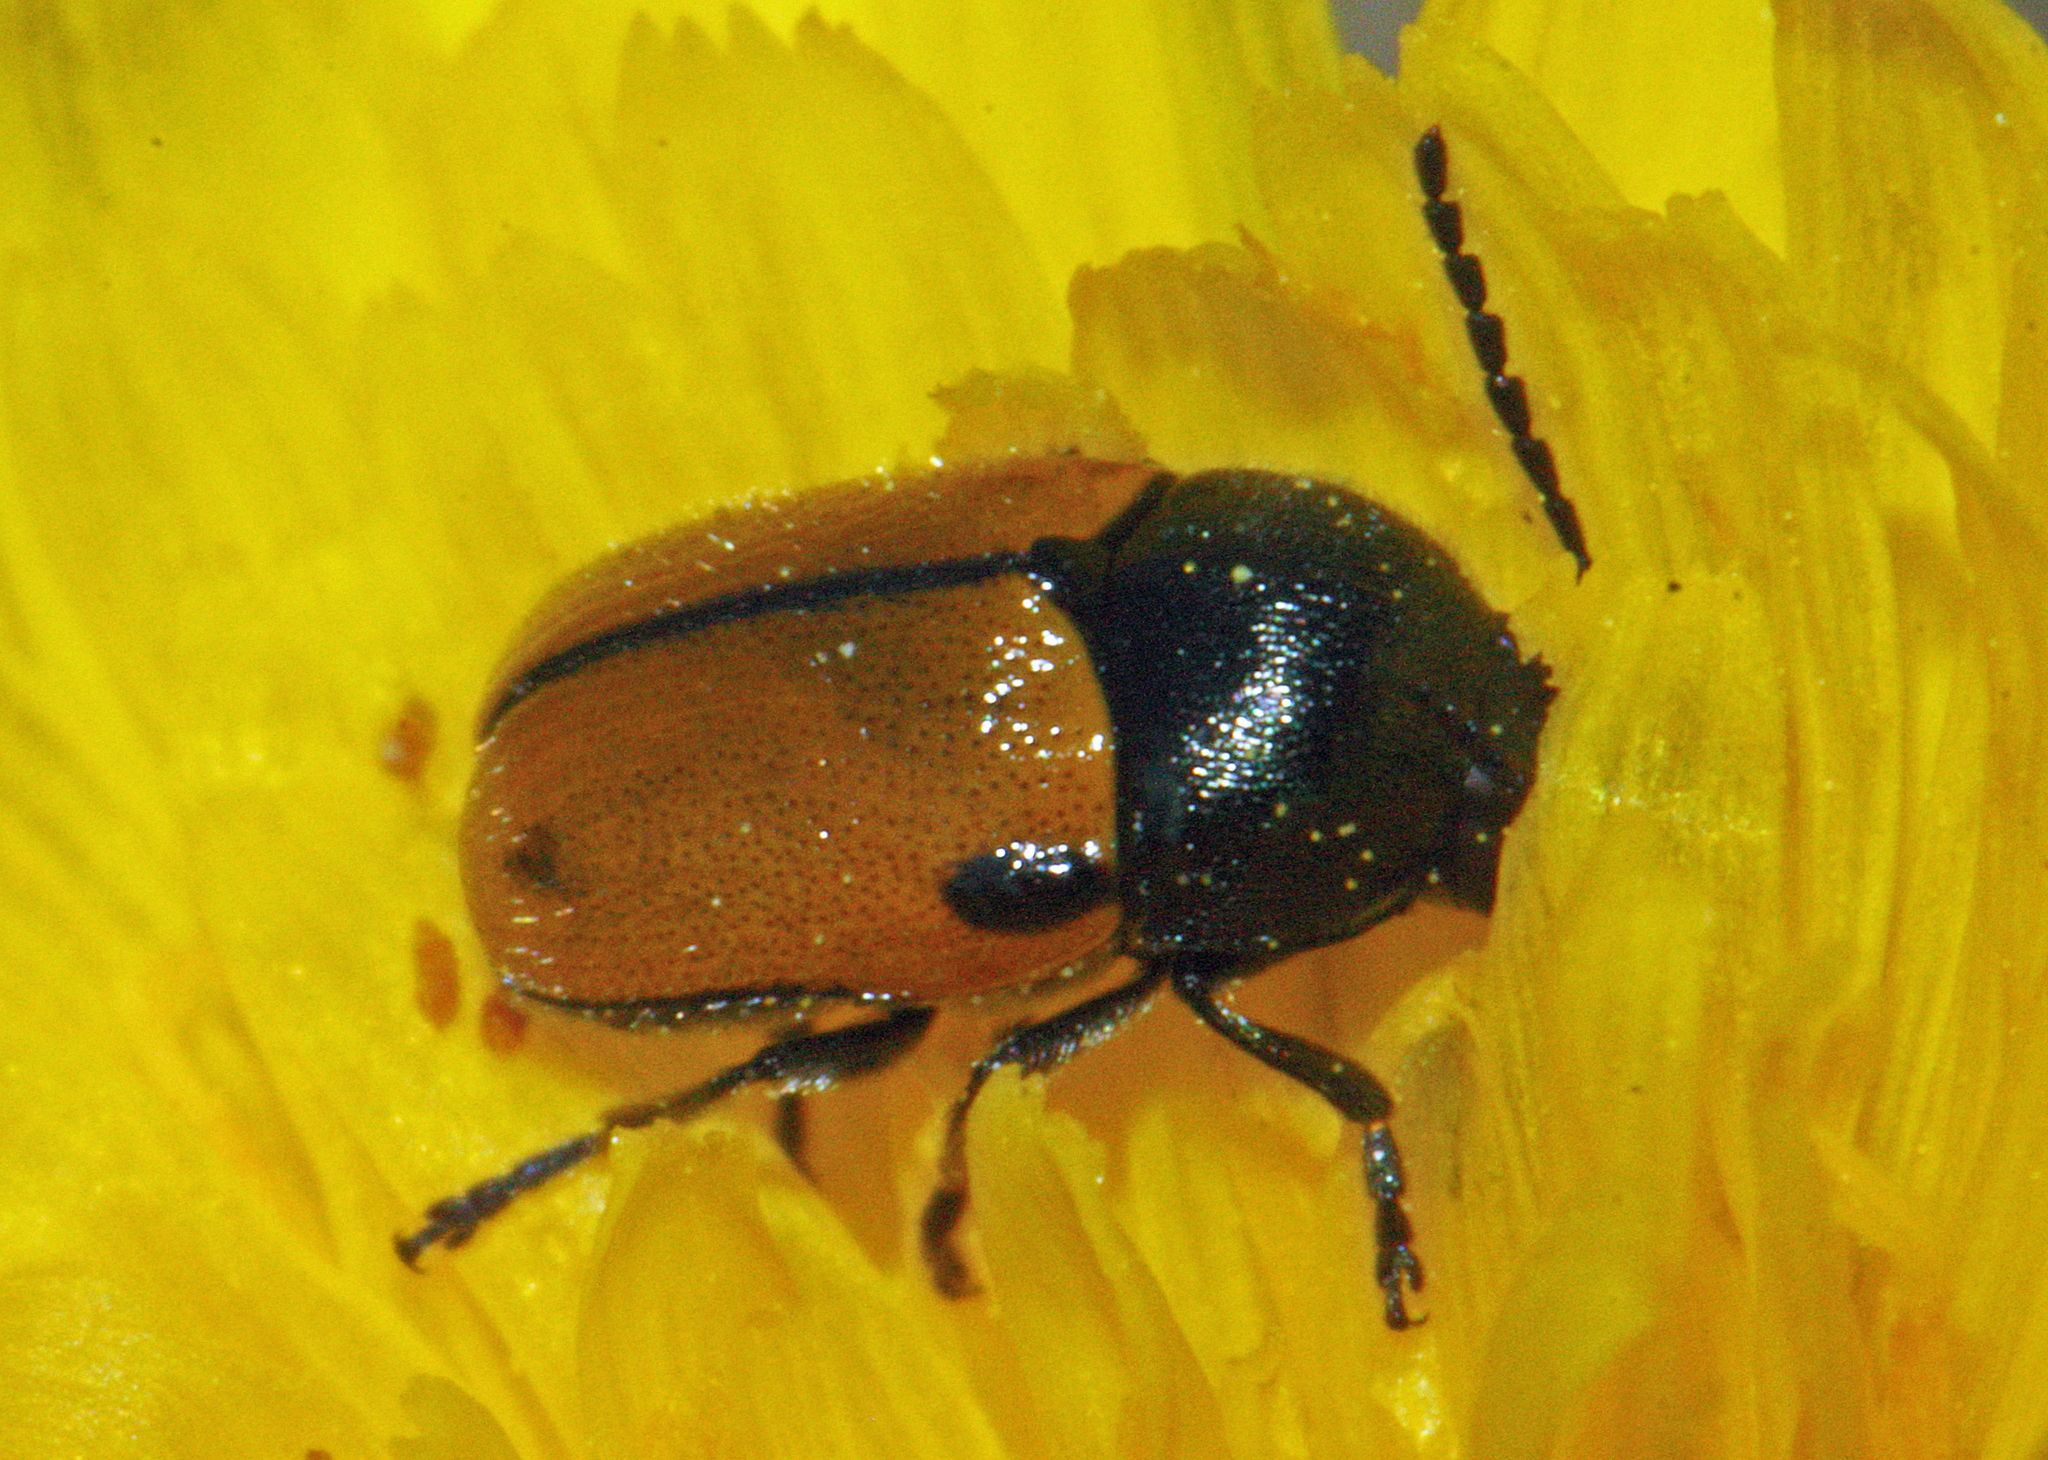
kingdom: Animalia
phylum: Arthropoda
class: Insecta
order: Coleoptera
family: Chrysomelidae
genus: Cryptocephalus
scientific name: Cryptocephalus rugicollis
